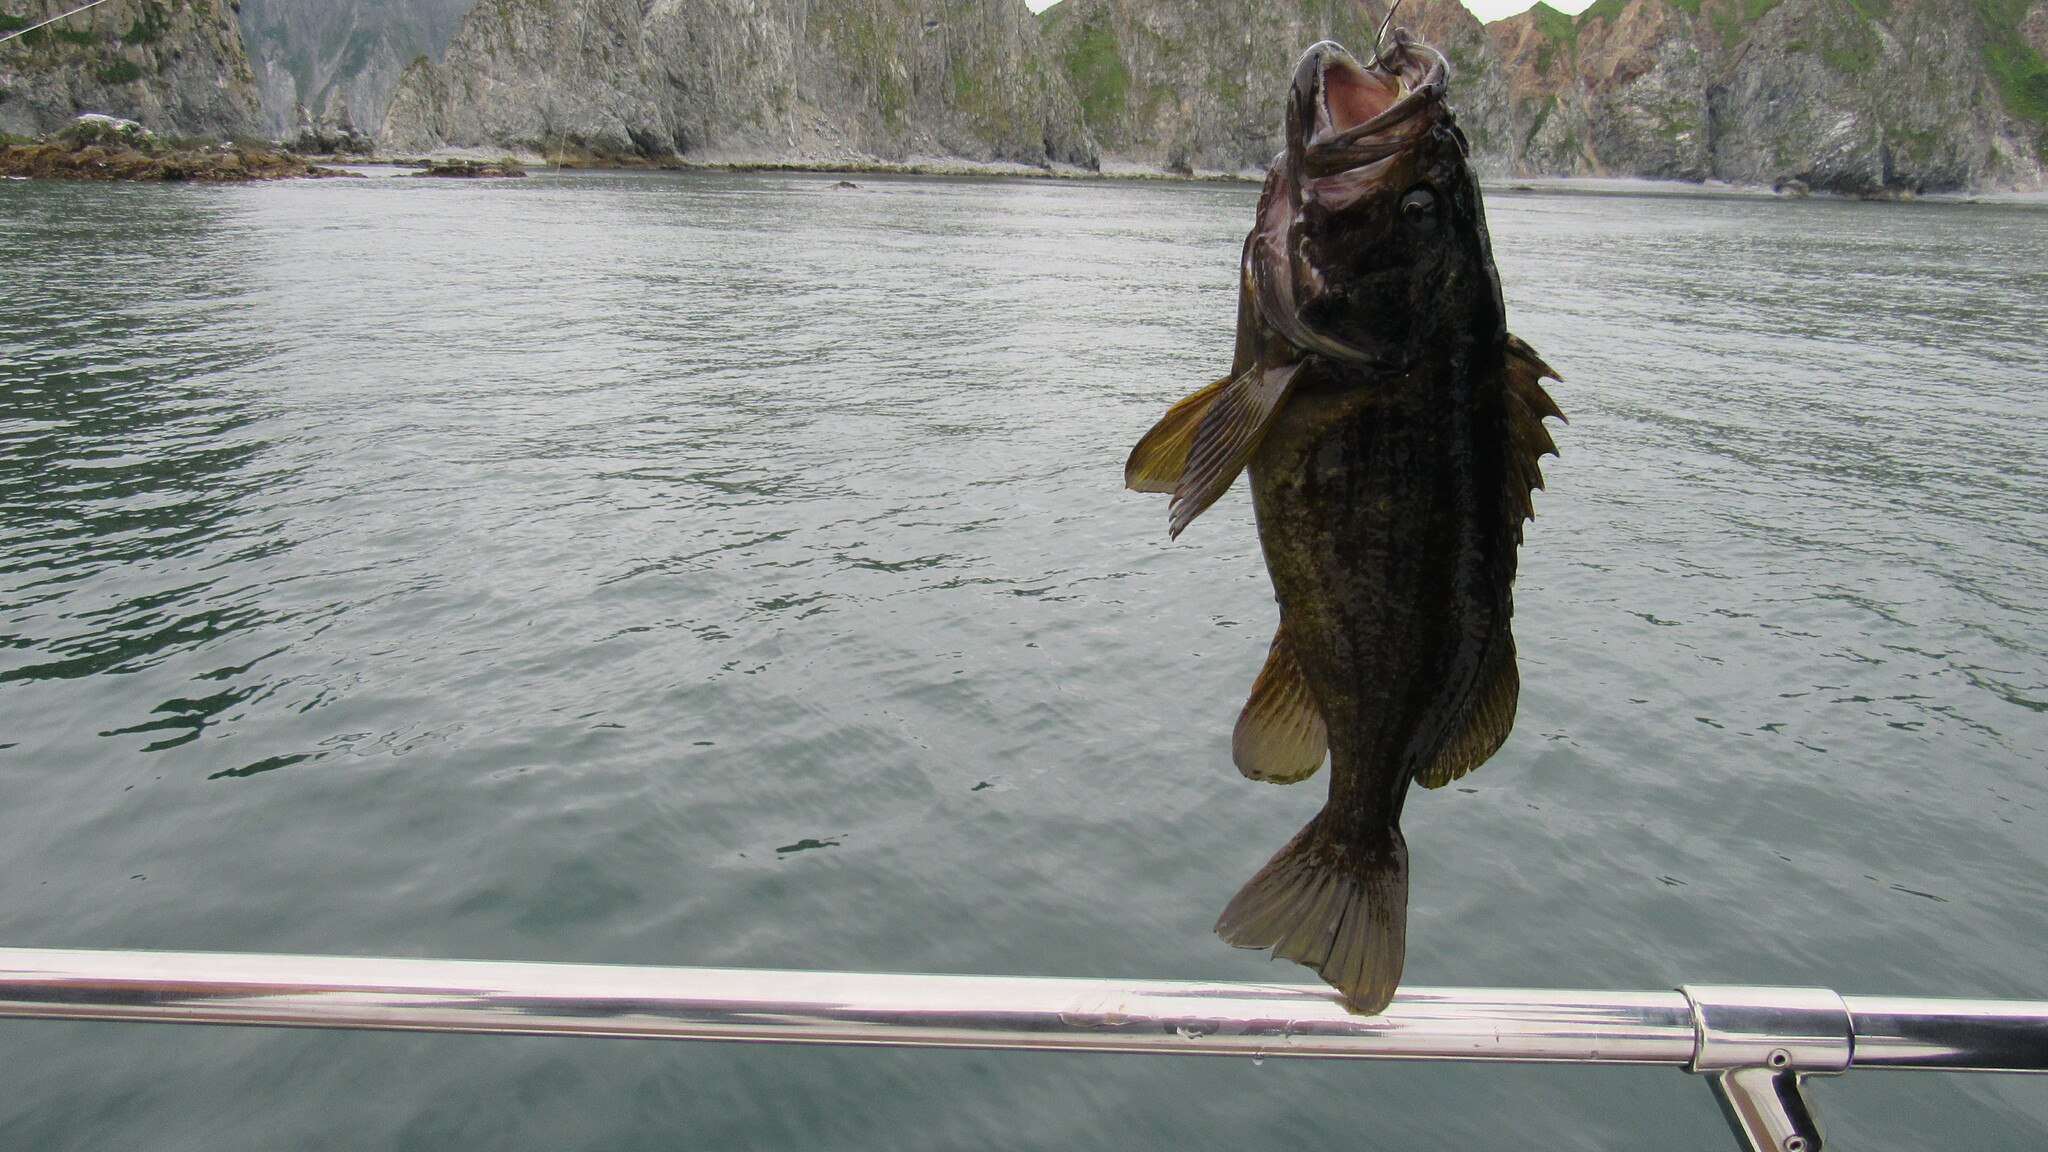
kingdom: Animalia
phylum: Chordata
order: Scorpaeniformes
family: Sebastidae
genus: Sebastes
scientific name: Sebastes glaucus
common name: Blue rockfish
